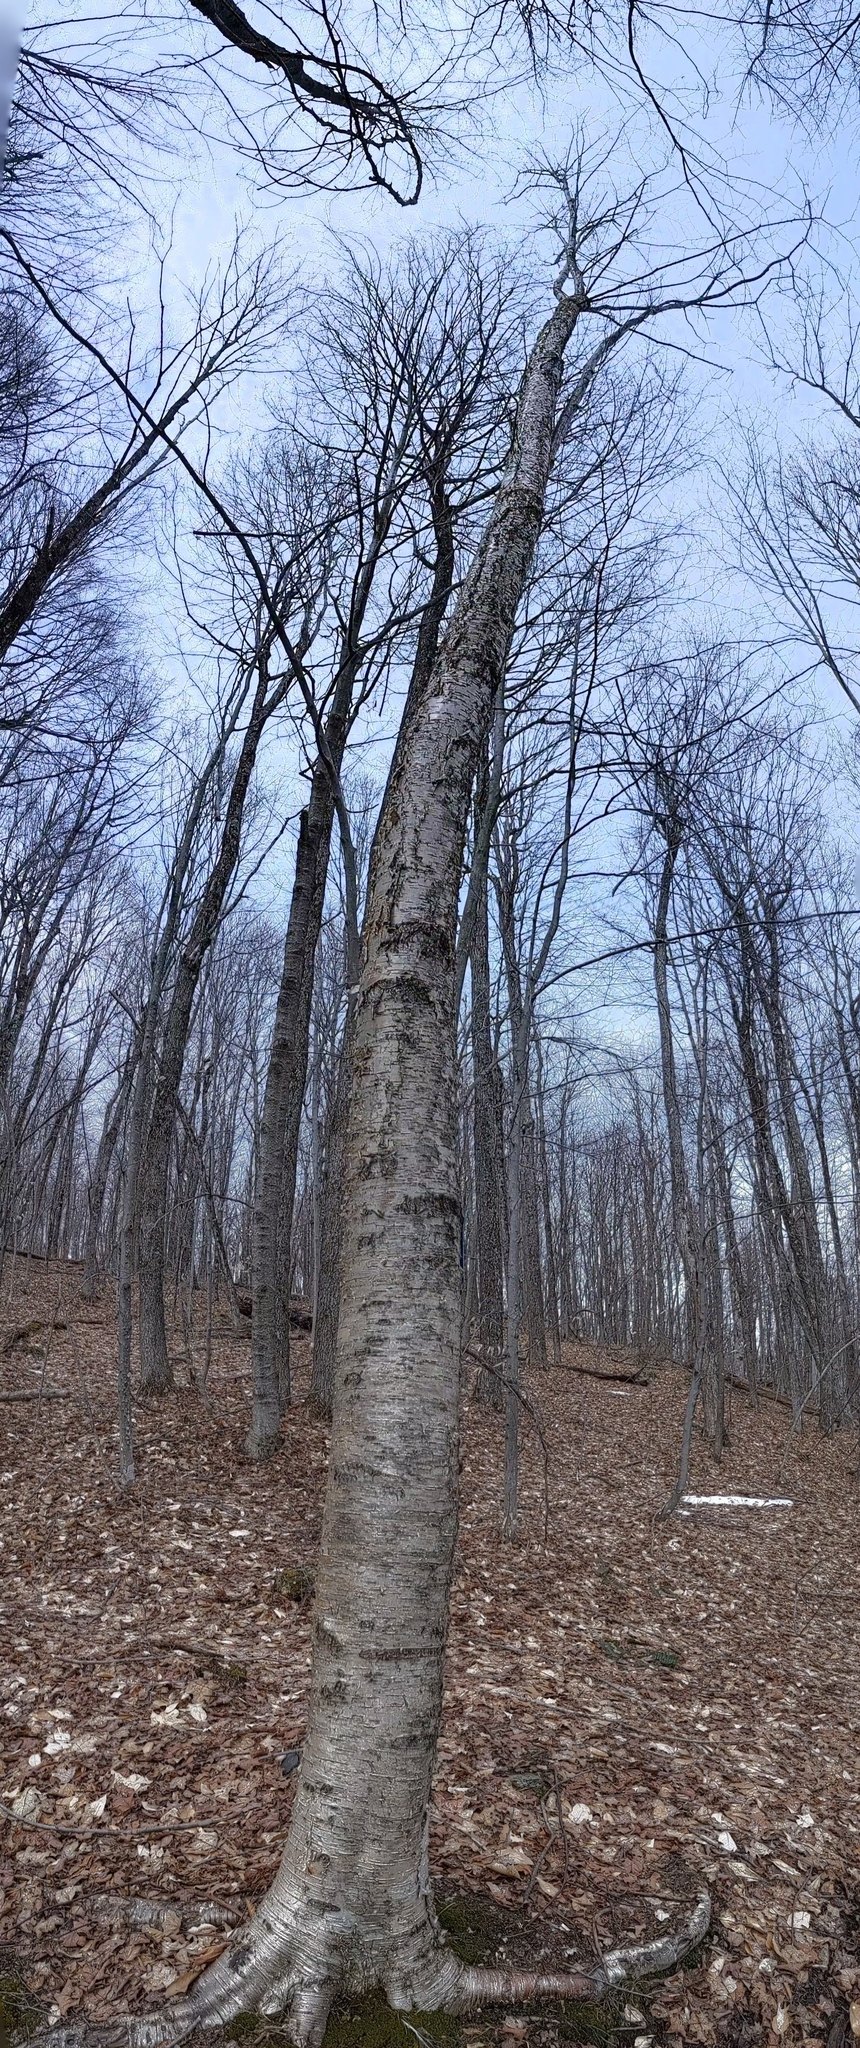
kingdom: Plantae
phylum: Tracheophyta
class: Magnoliopsida
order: Fagales
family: Betulaceae
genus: Betula
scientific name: Betula alleghaniensis
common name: Yellow birch
